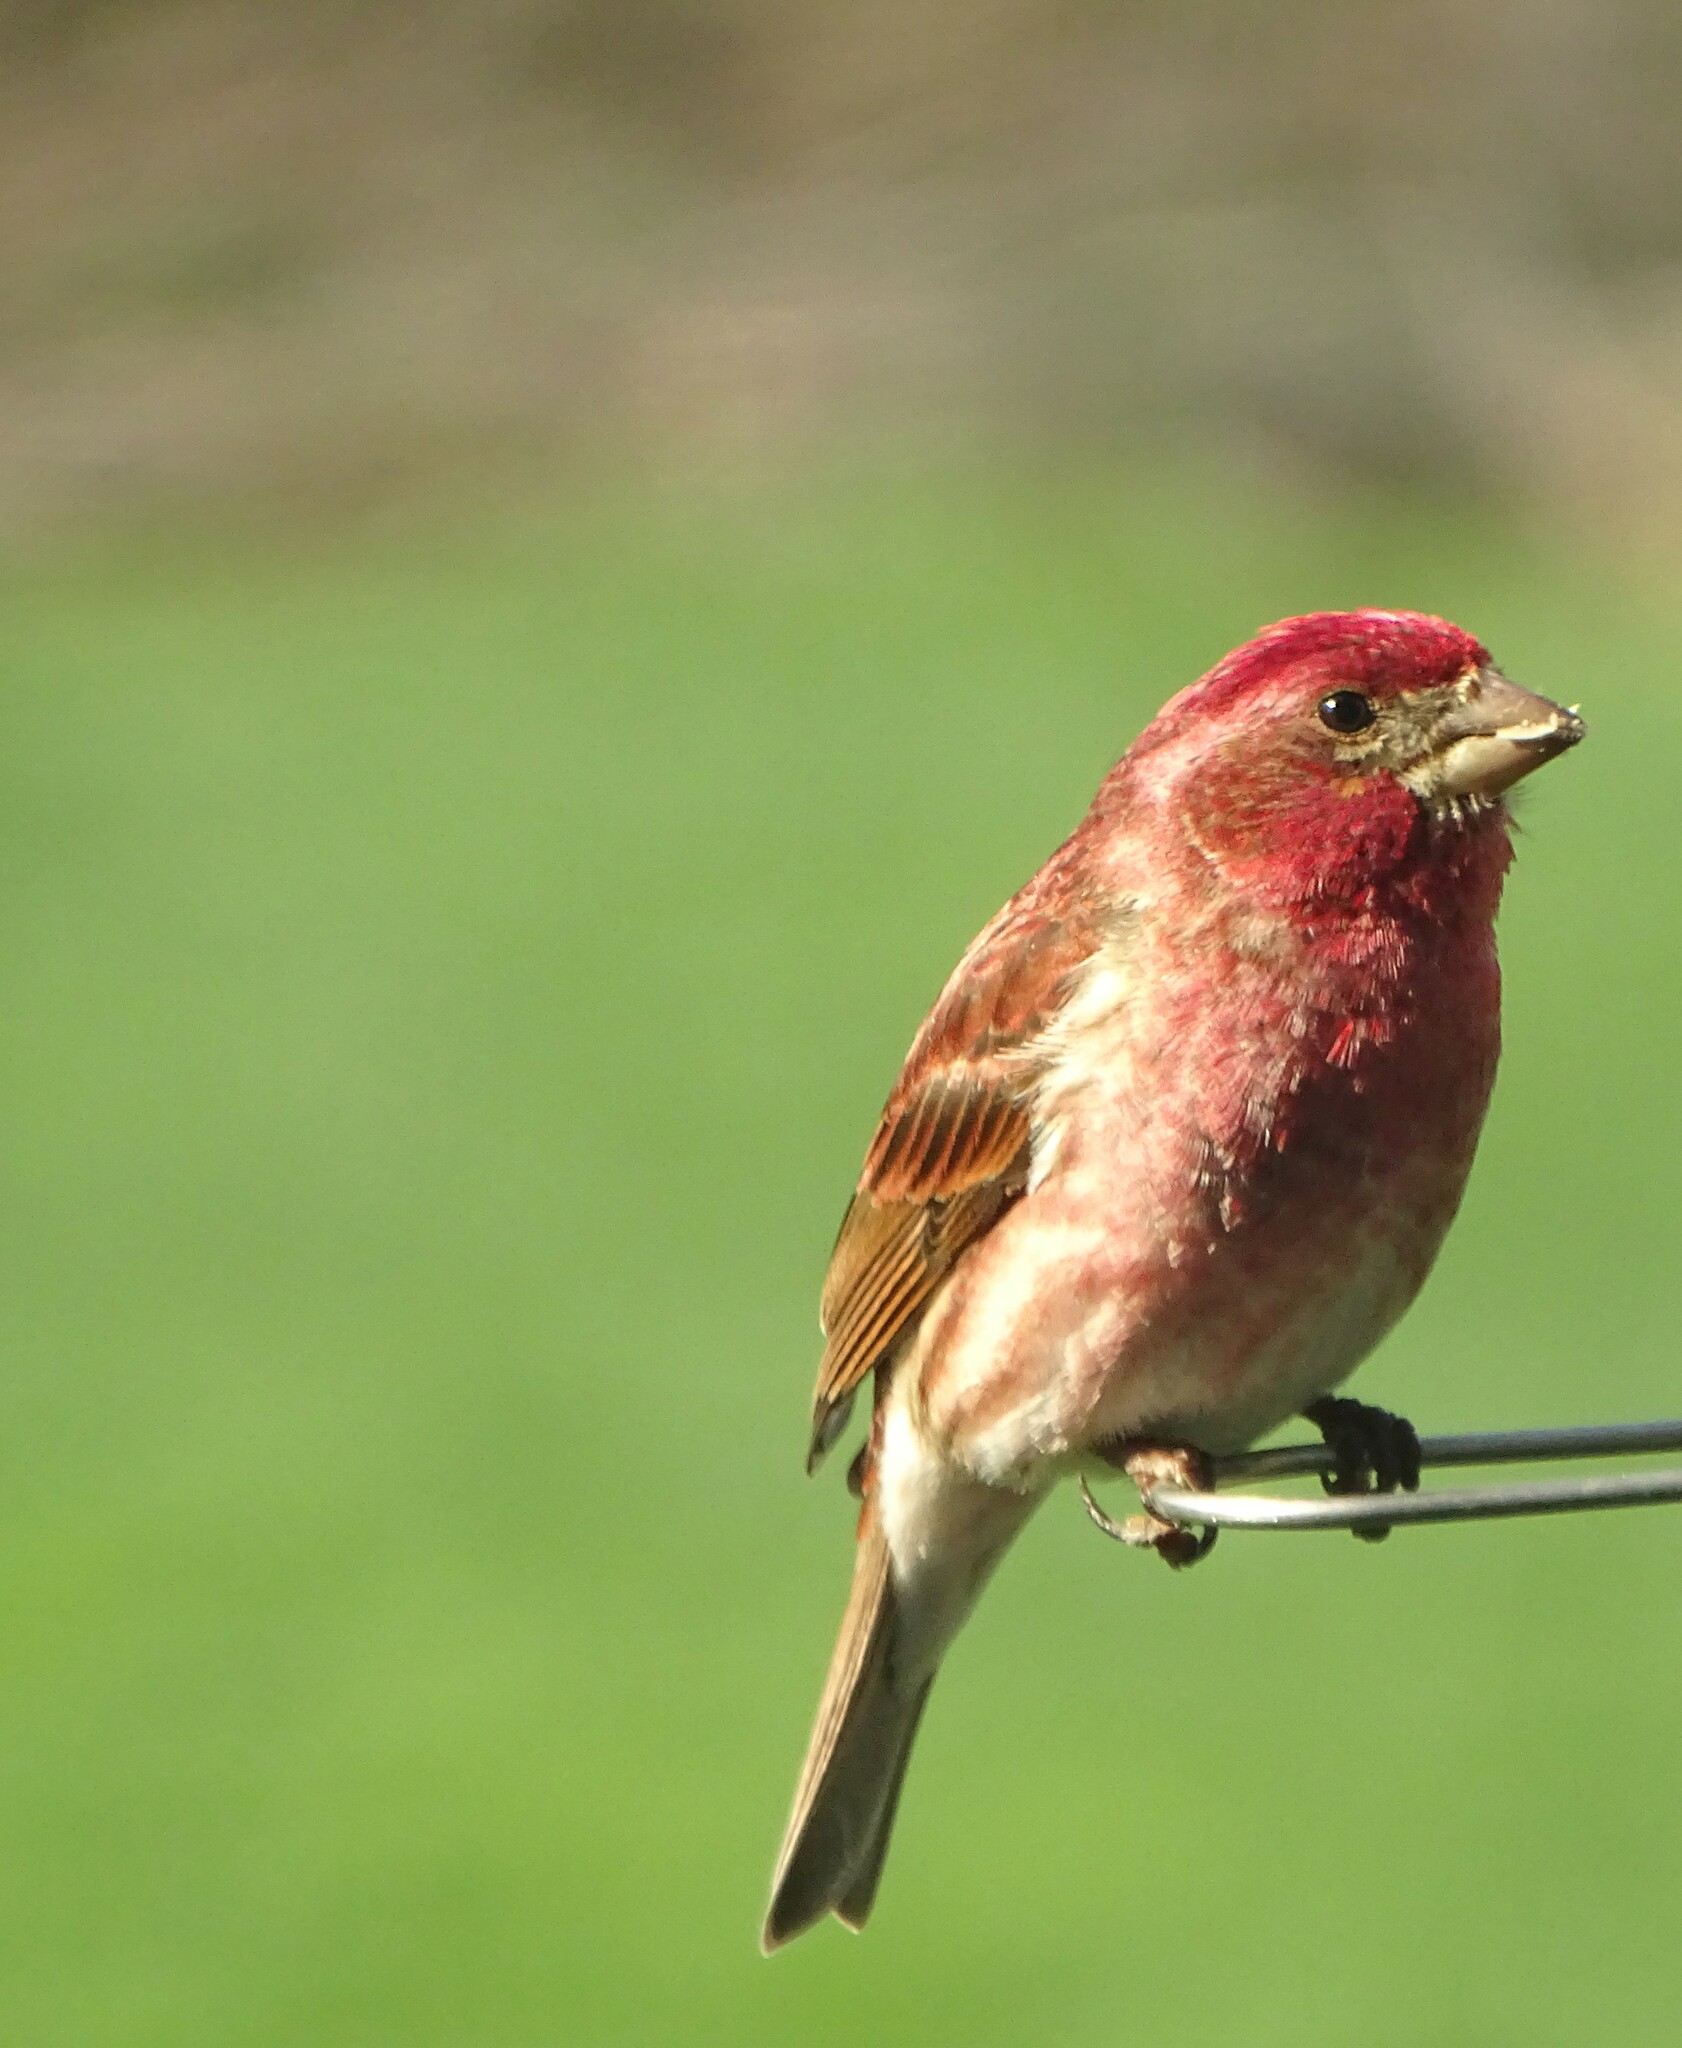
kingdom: Animalia
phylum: Chordata
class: Aves
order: Passeriformes
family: Fringillidae
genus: Haemorhous
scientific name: Haemorhous purpureus
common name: Purple finch
